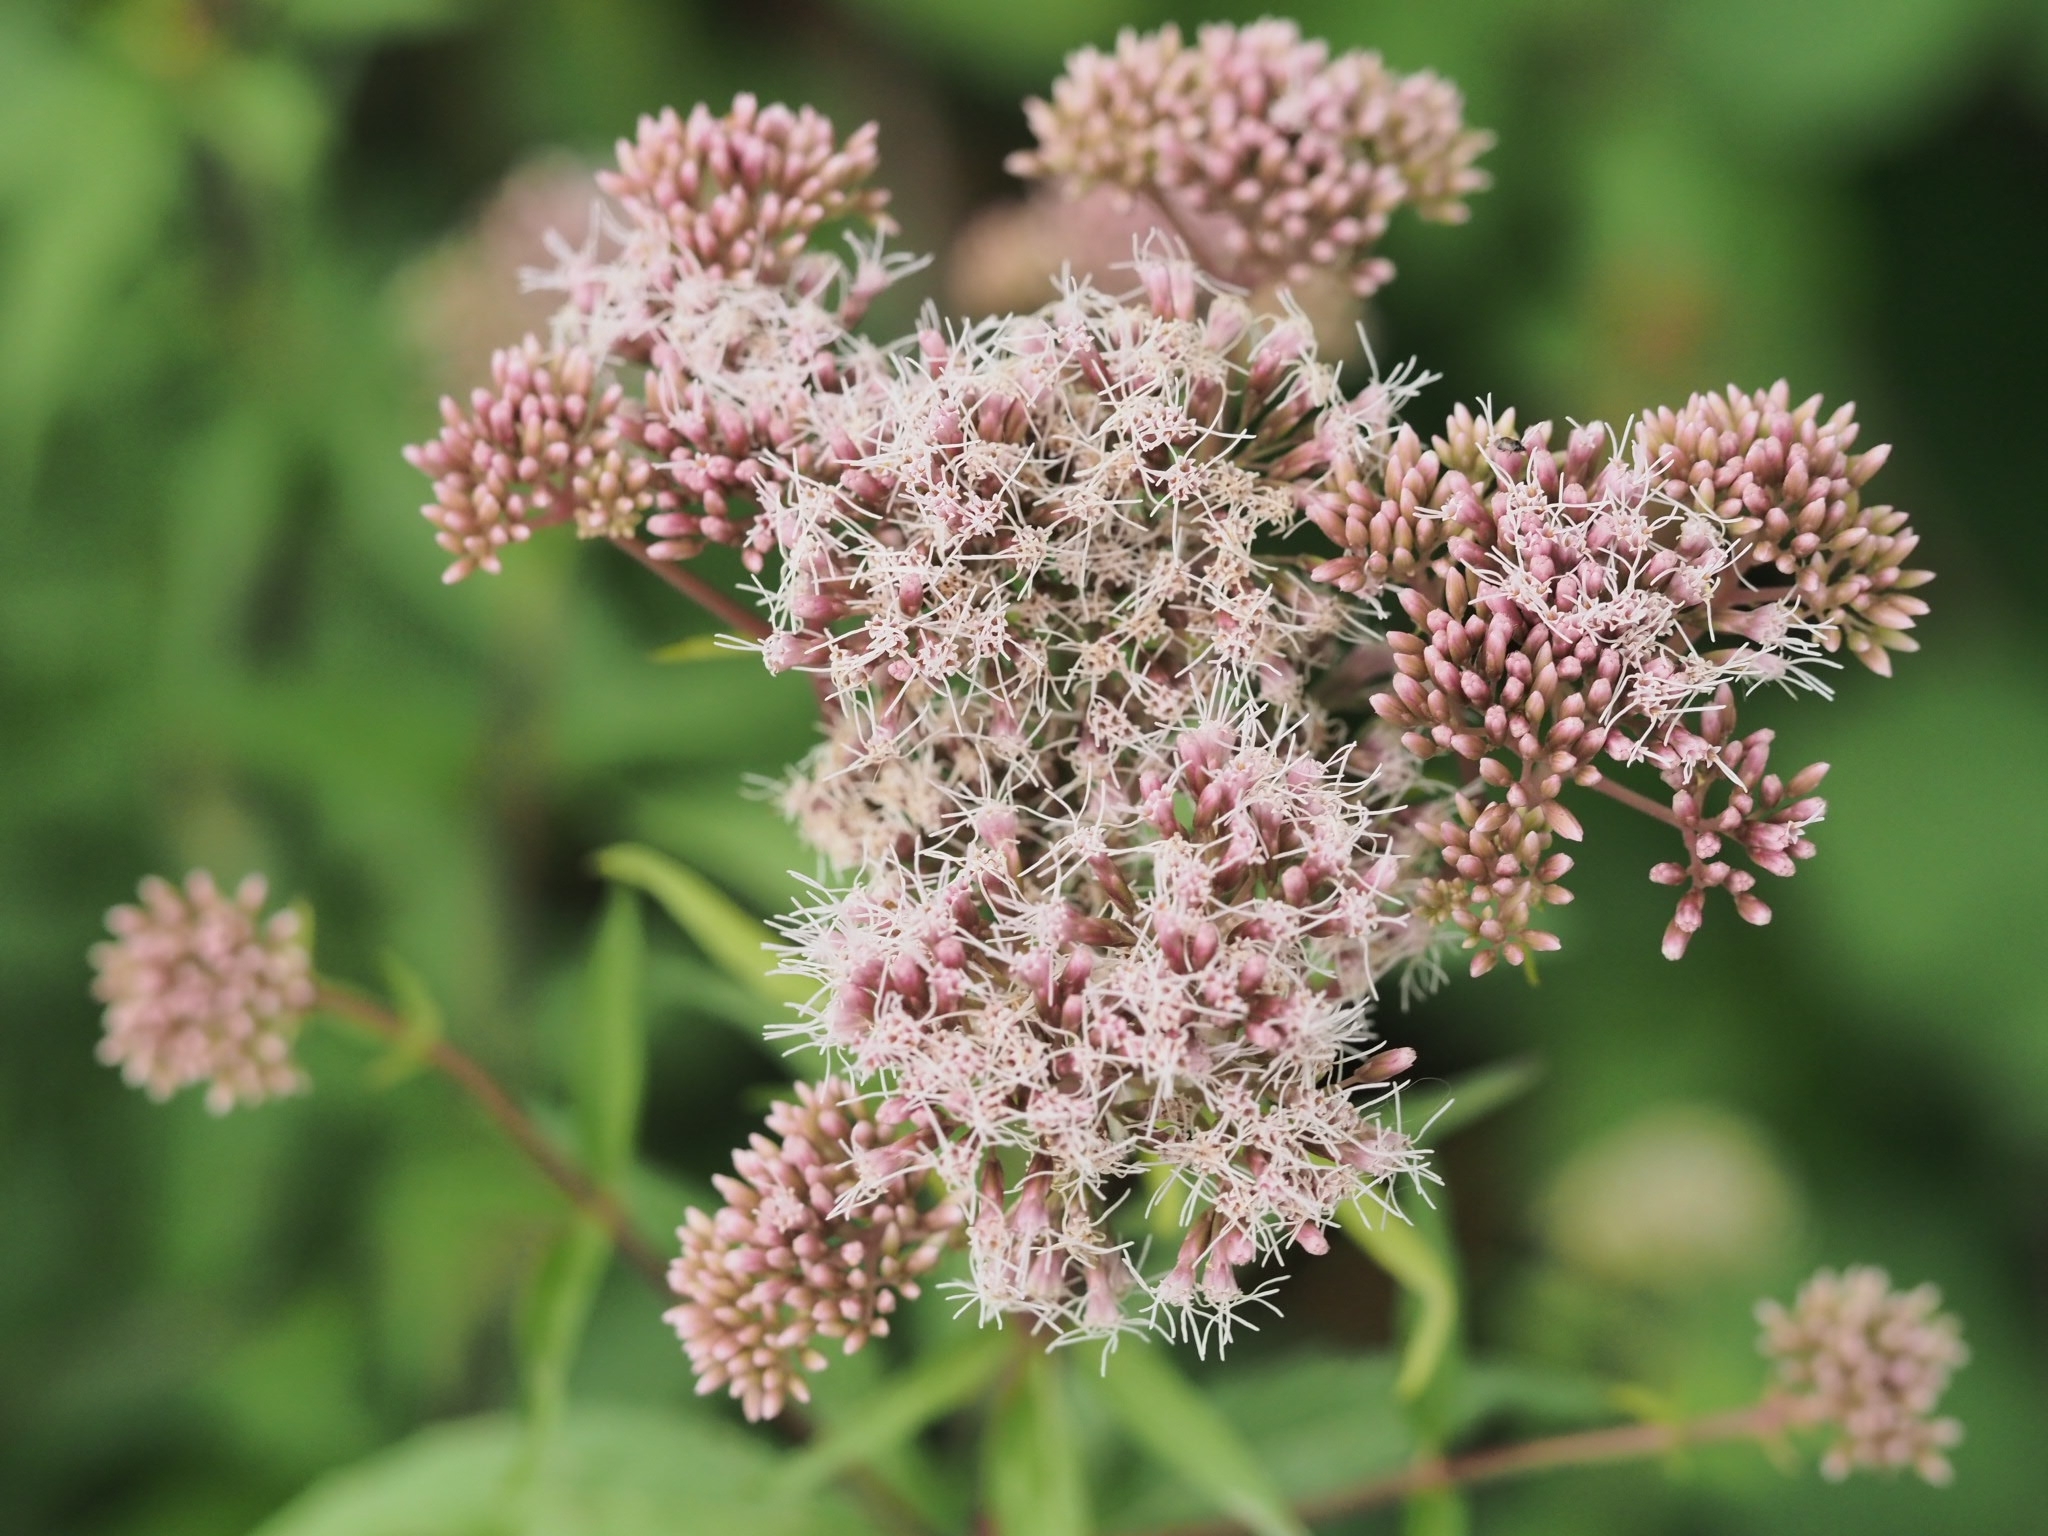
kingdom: Plantae
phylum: Tracheophyta
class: Magnoliopsida
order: Asterales
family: Asteraceae
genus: Eupatorium
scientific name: Eupatorium cannabinum
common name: Hemp-agrimony
